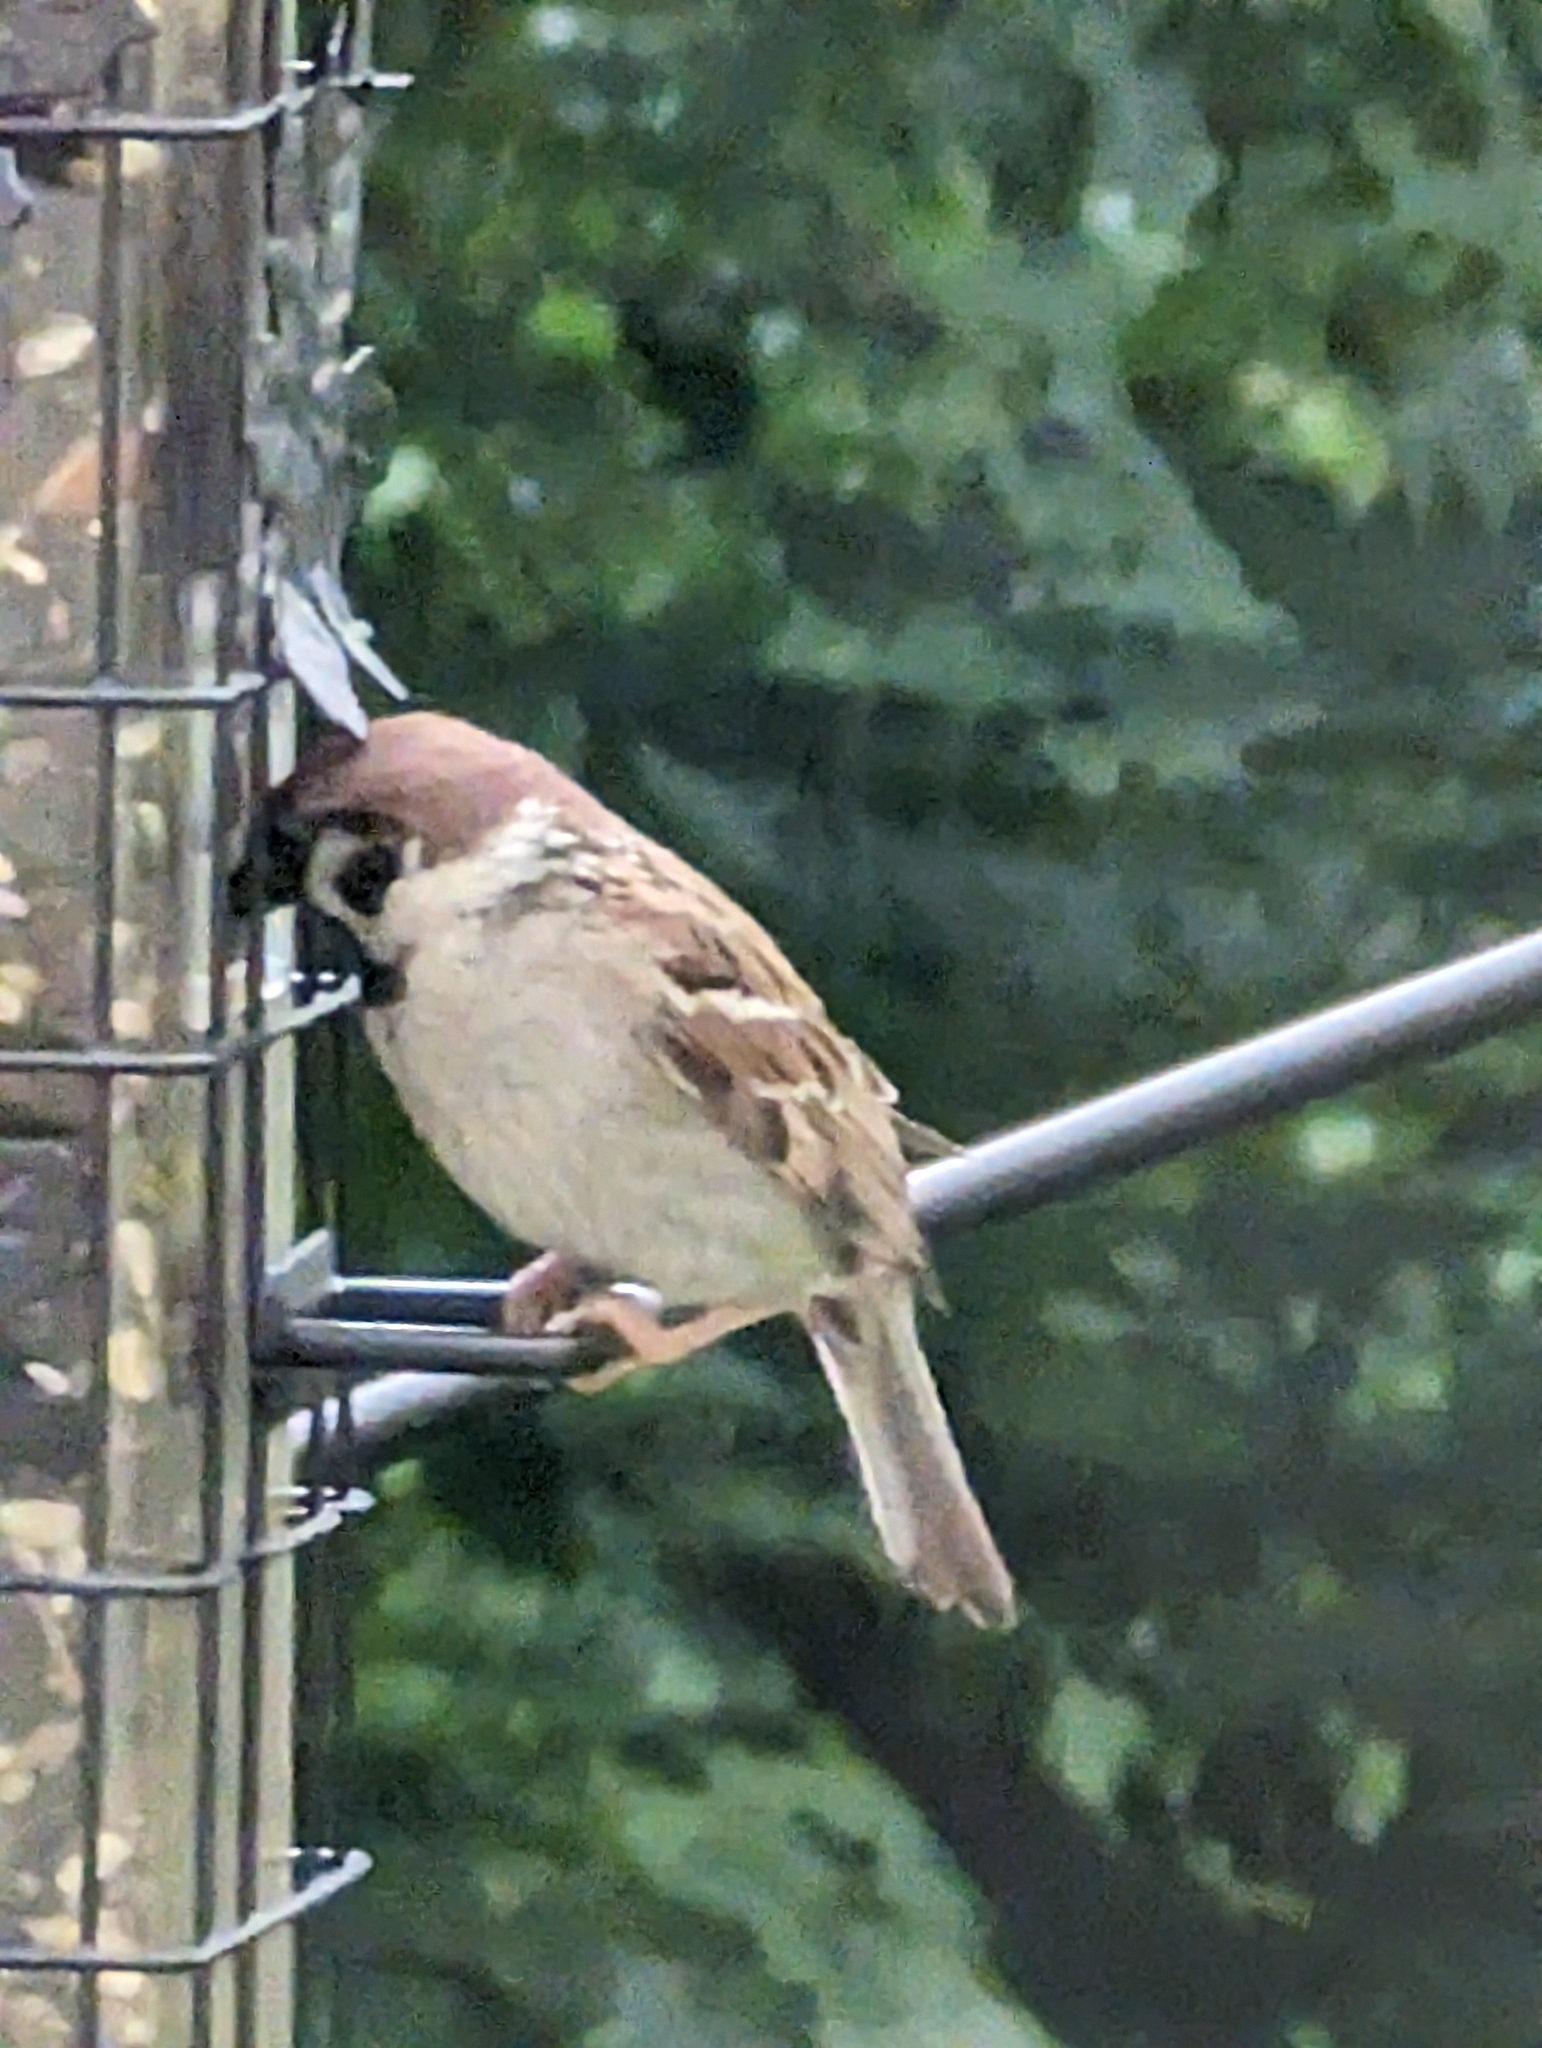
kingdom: Animalia
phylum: Chordata
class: Aves
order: Passeriformes
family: Passeridae
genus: Passer
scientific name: Passer montanus
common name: Eurasian tree sparrow
